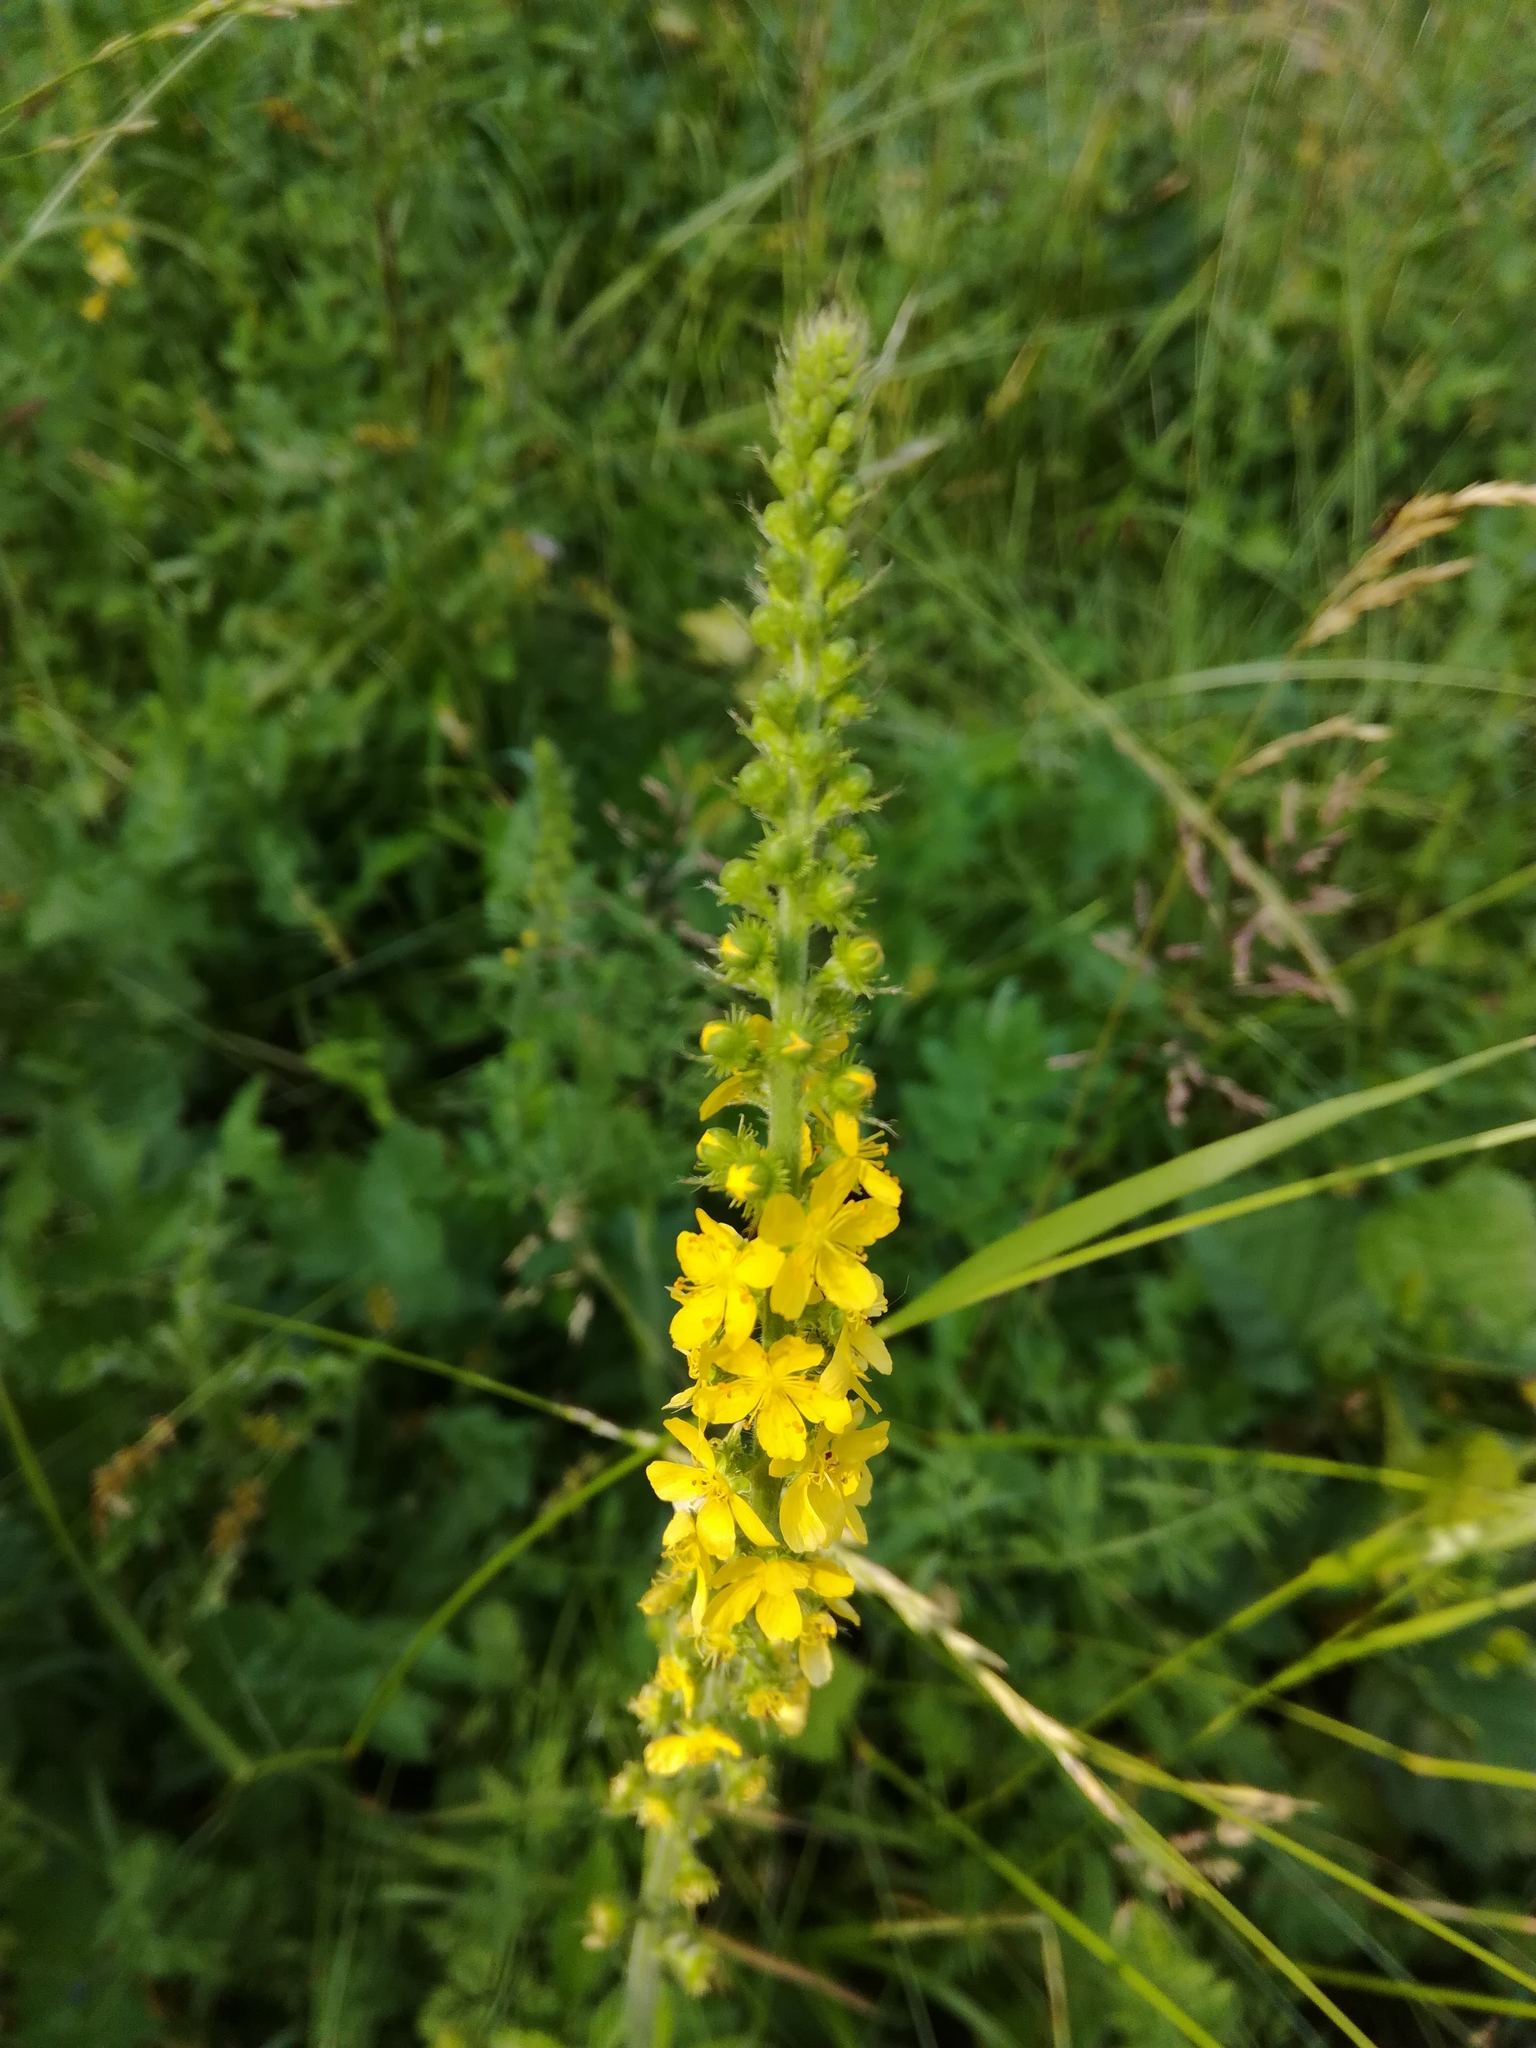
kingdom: Plantae
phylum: Tracheophyta
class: Magnoliopsida
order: Rosales
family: Rosaceae
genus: Agrimonia
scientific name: Agrimonia eupatoria
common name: Agrimony
